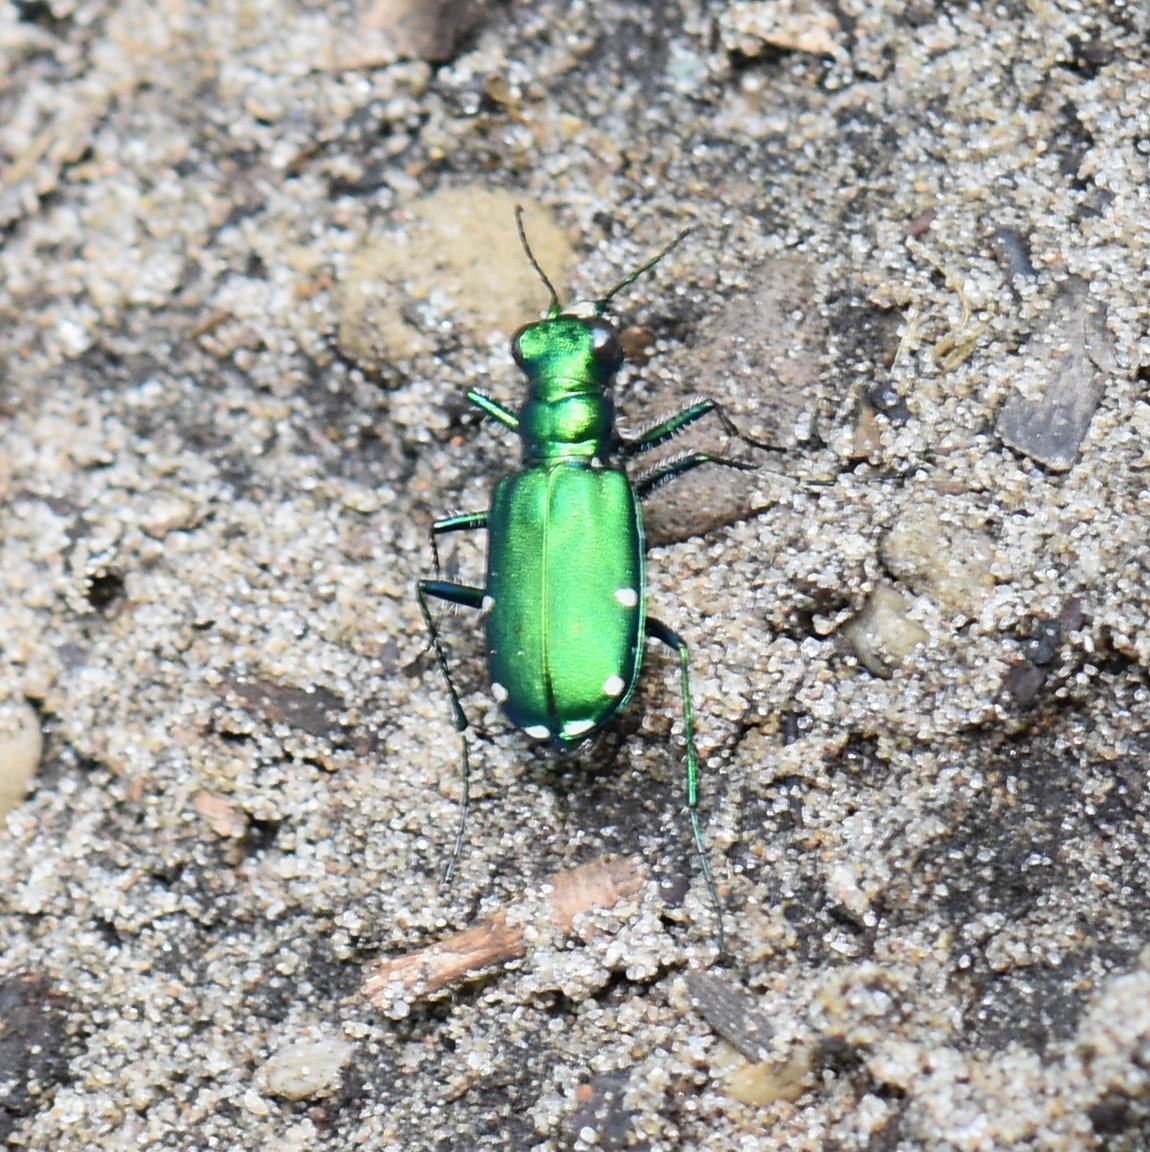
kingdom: Animalia
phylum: Arthropoda
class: Insecta
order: Coleoptera
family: Carabidae
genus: Cicindela
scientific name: Cicindela sexguttata
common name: Six-spotted tiger beetle
